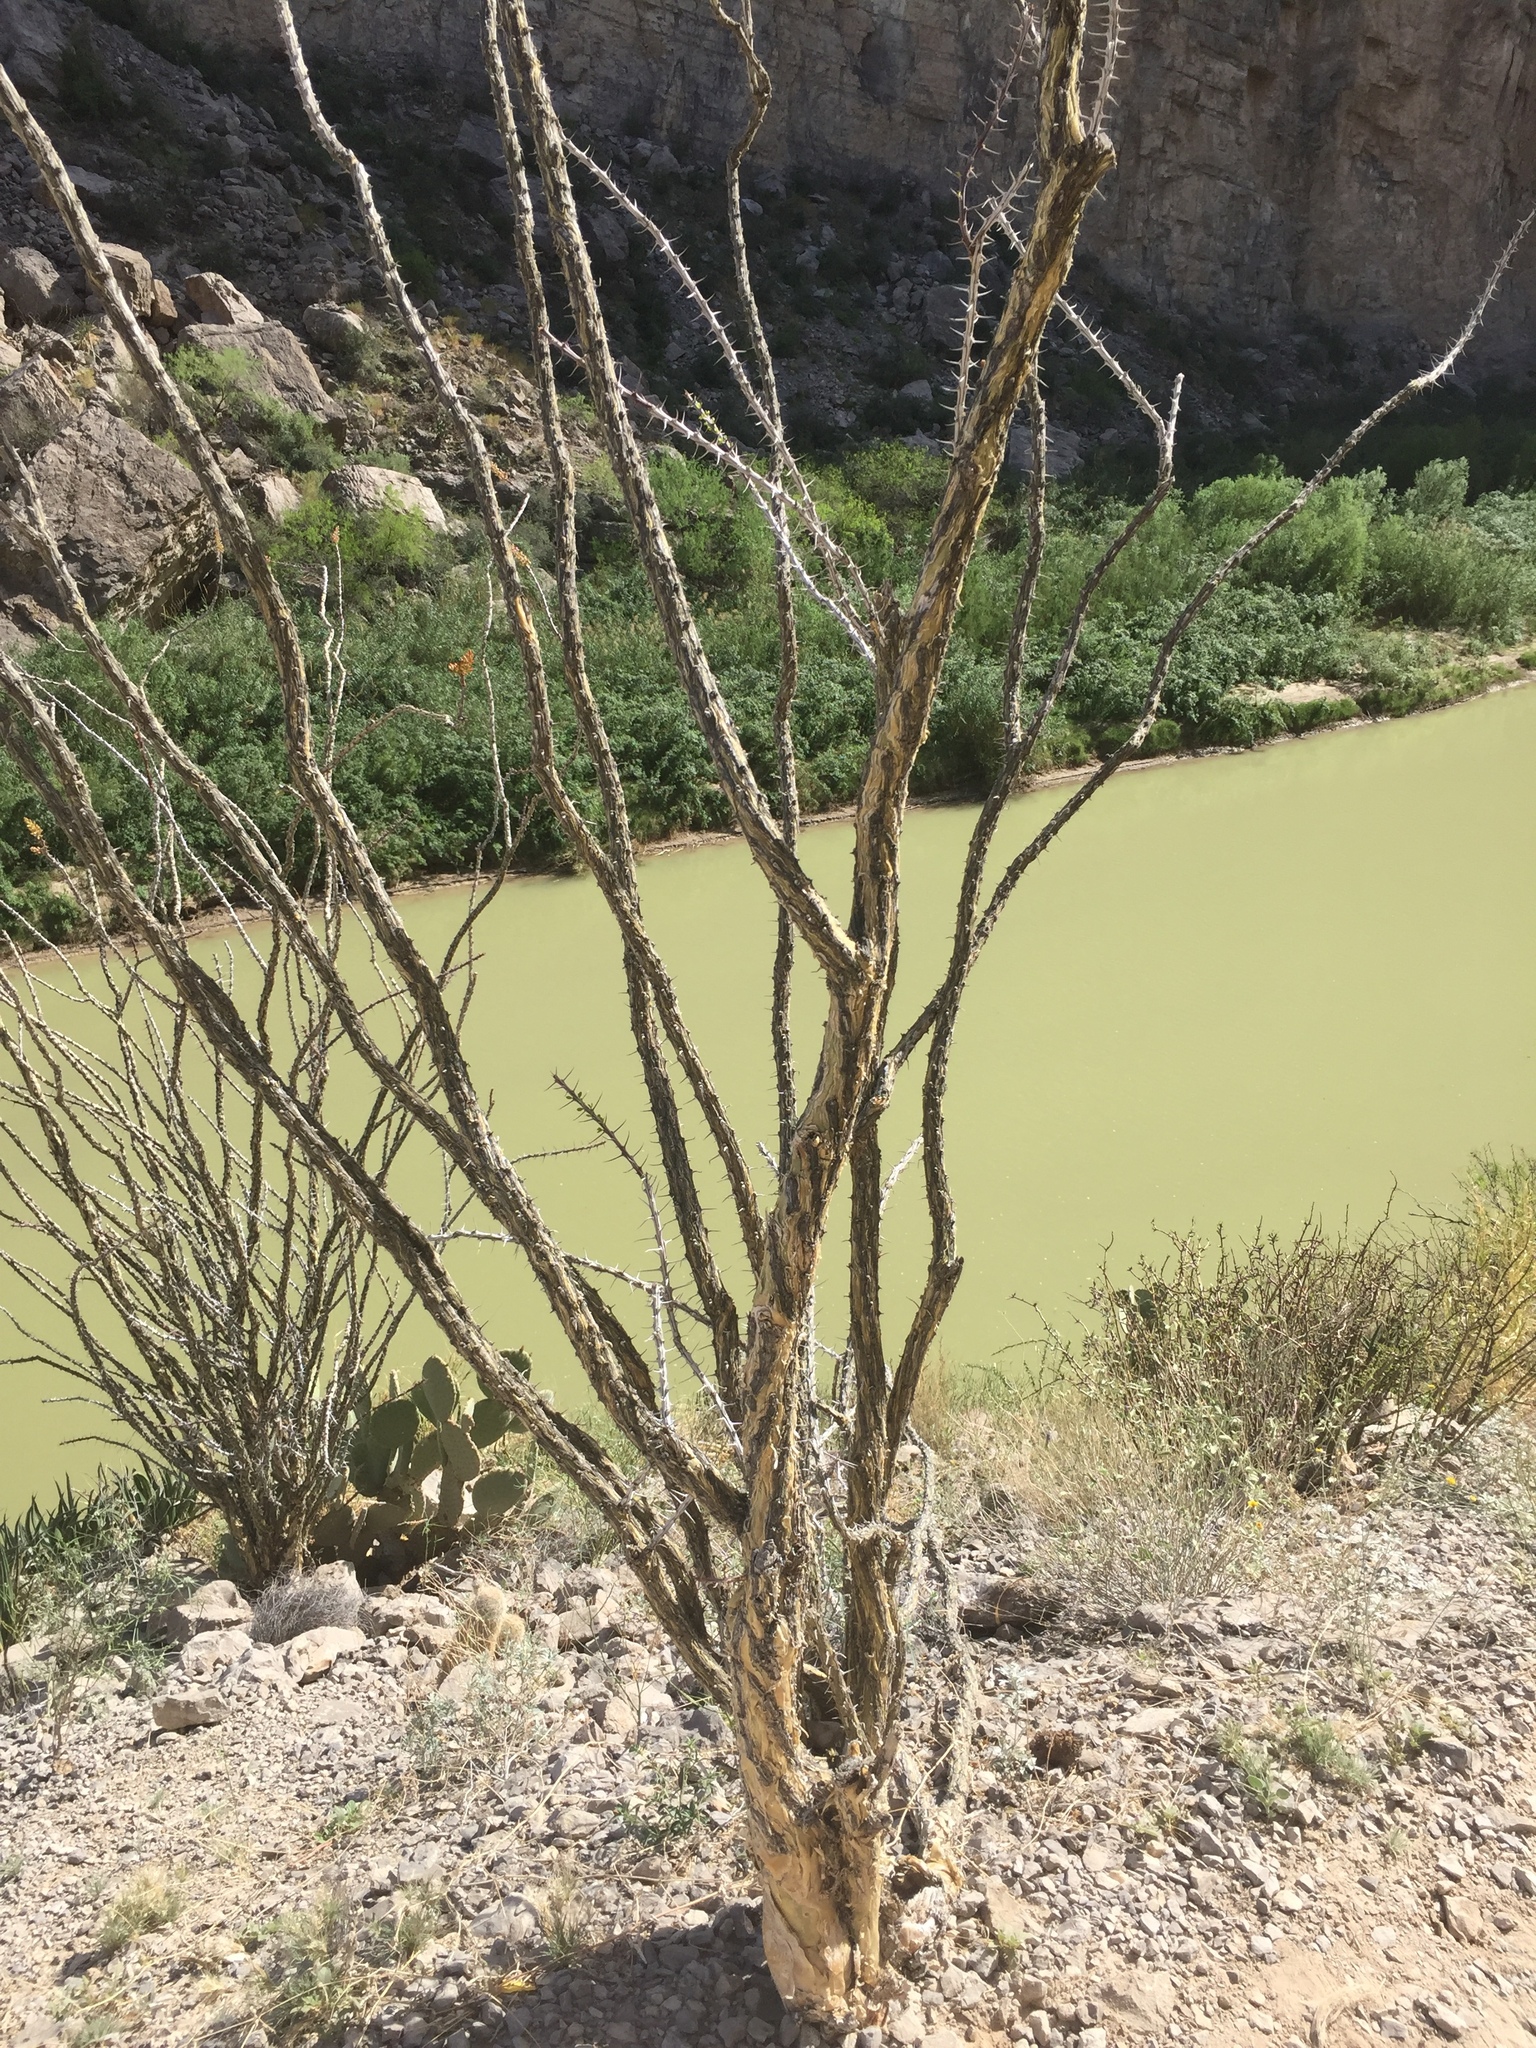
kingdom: Plantae
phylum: Tracheophyta
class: Magnoliopsida
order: Ericales
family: Fouquieriaceae
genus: Fouquieria
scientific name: Fouquieria splendens
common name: Vine-cactus
